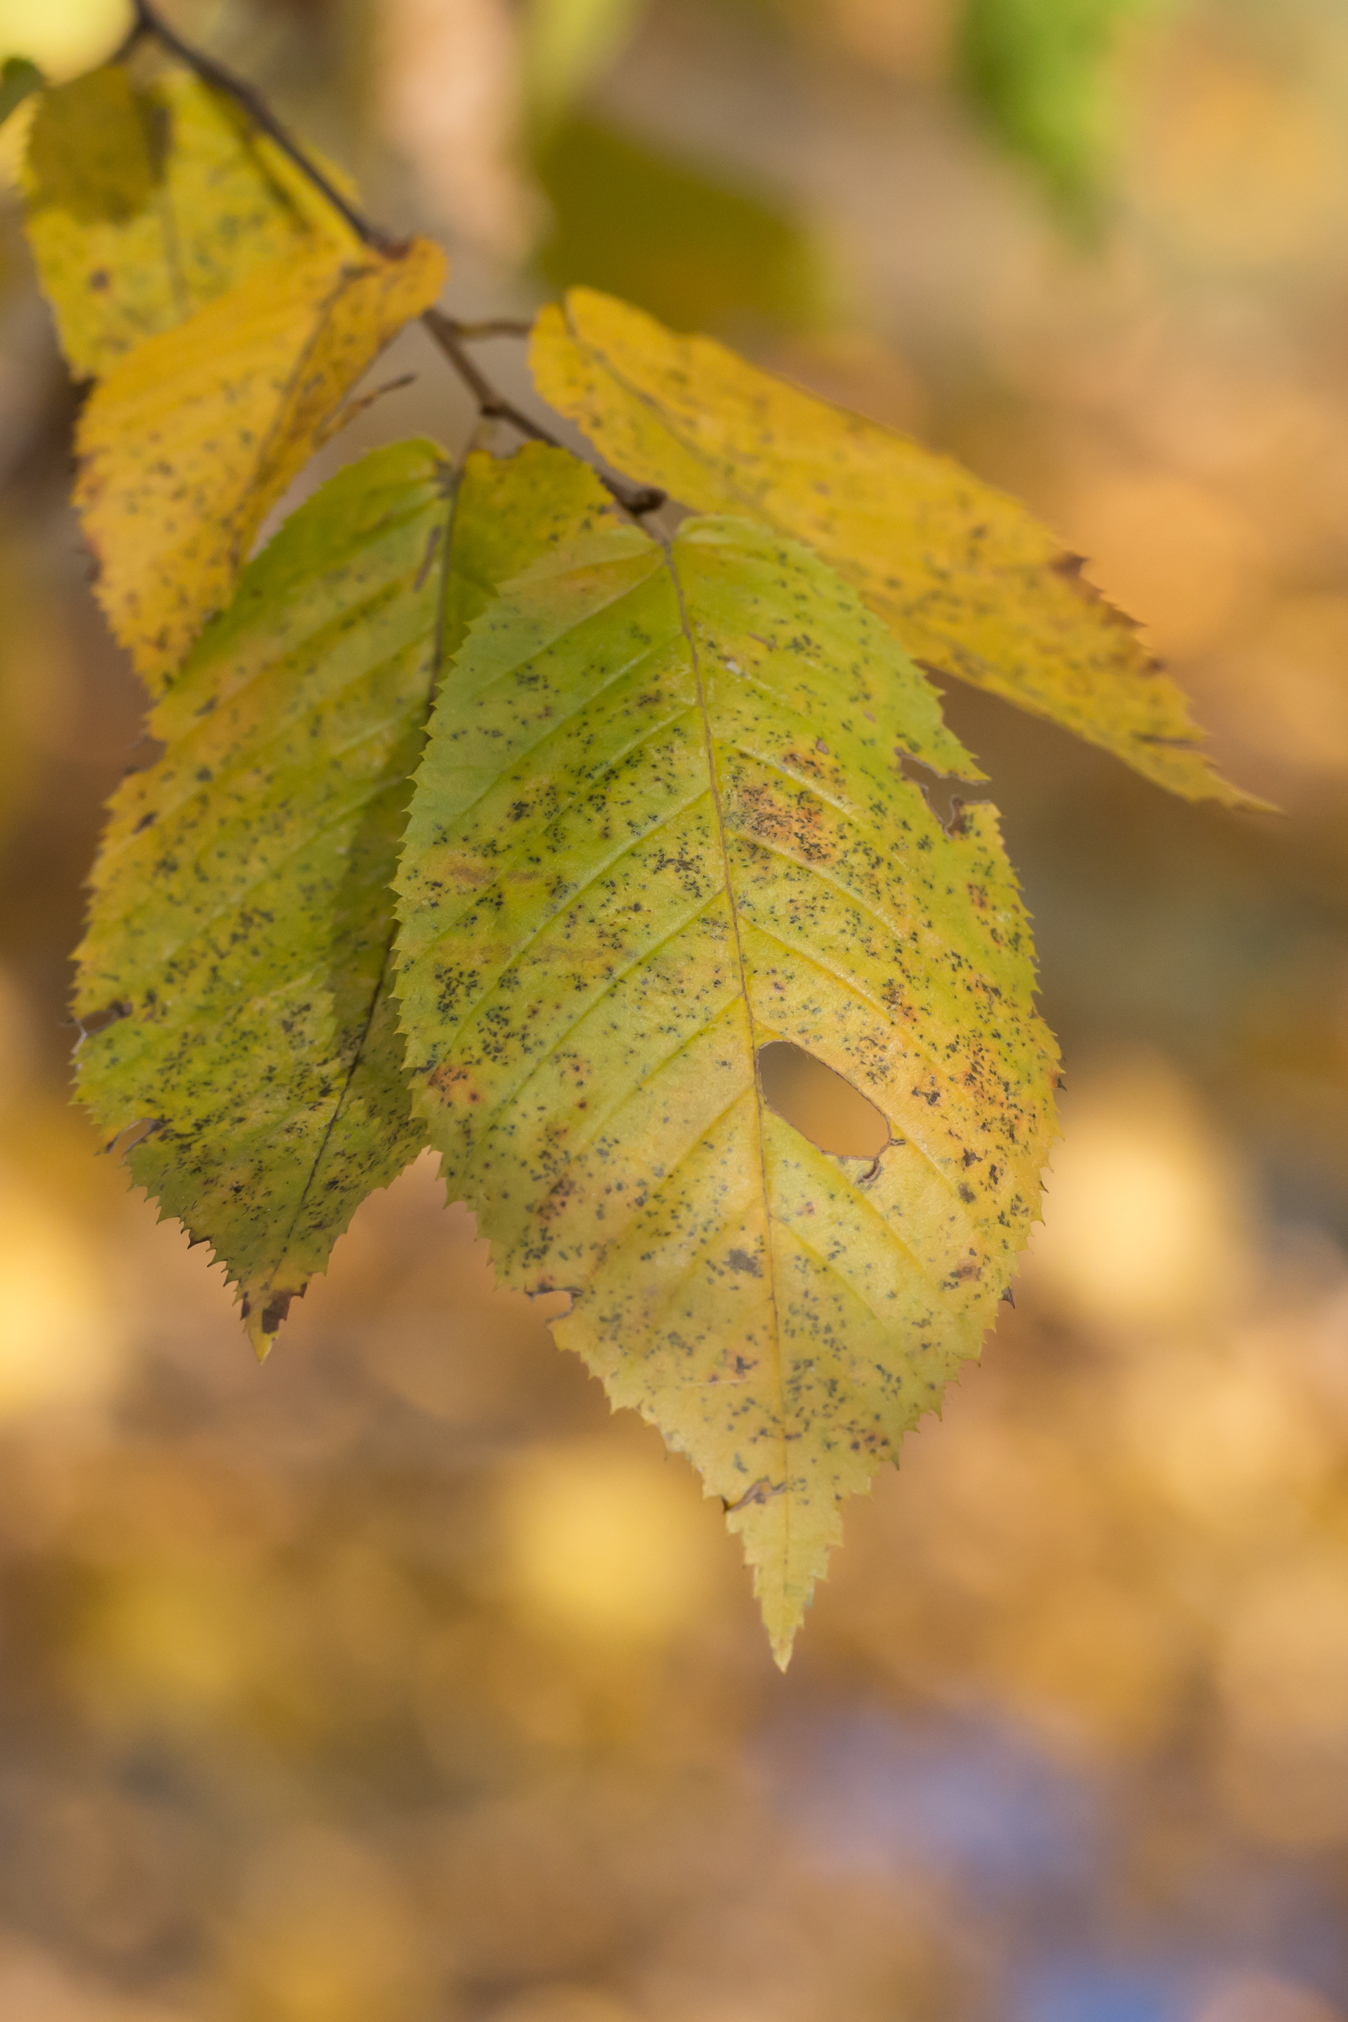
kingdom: Plantae
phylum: Tracheophyta
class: Magnoliopsida
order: Fagales
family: Betulaceae
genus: Carpinus
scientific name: Carpinus caroliniana
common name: American hornbeam
